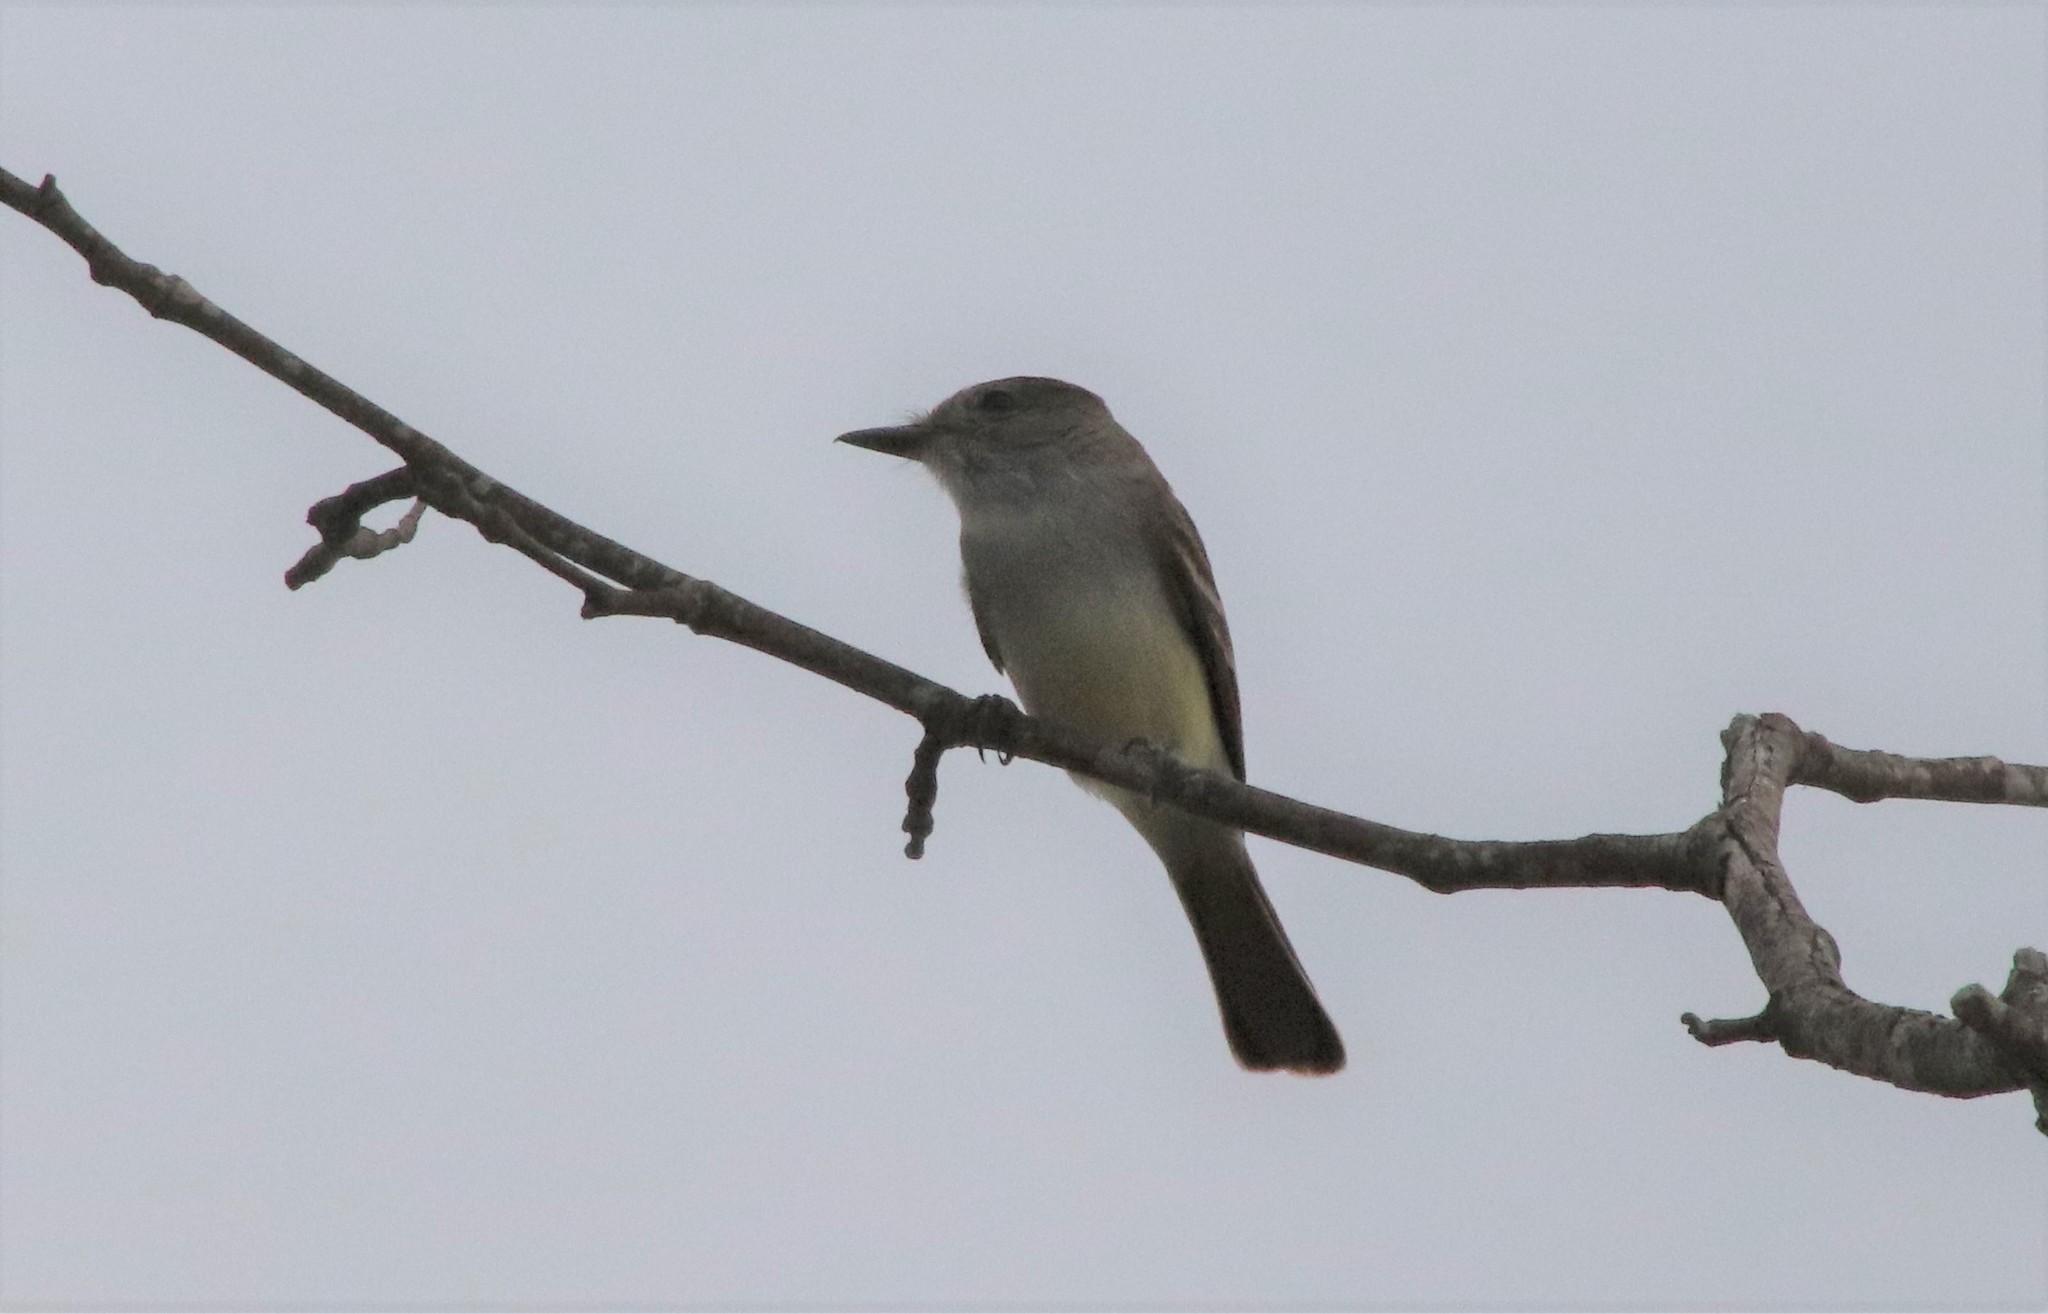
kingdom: Animalia
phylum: Chordata
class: Aves
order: Passeriformes
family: Tyrannidae
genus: Myiarchus
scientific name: Myiarchus cinerascens
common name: Ash-throated flycatcher
